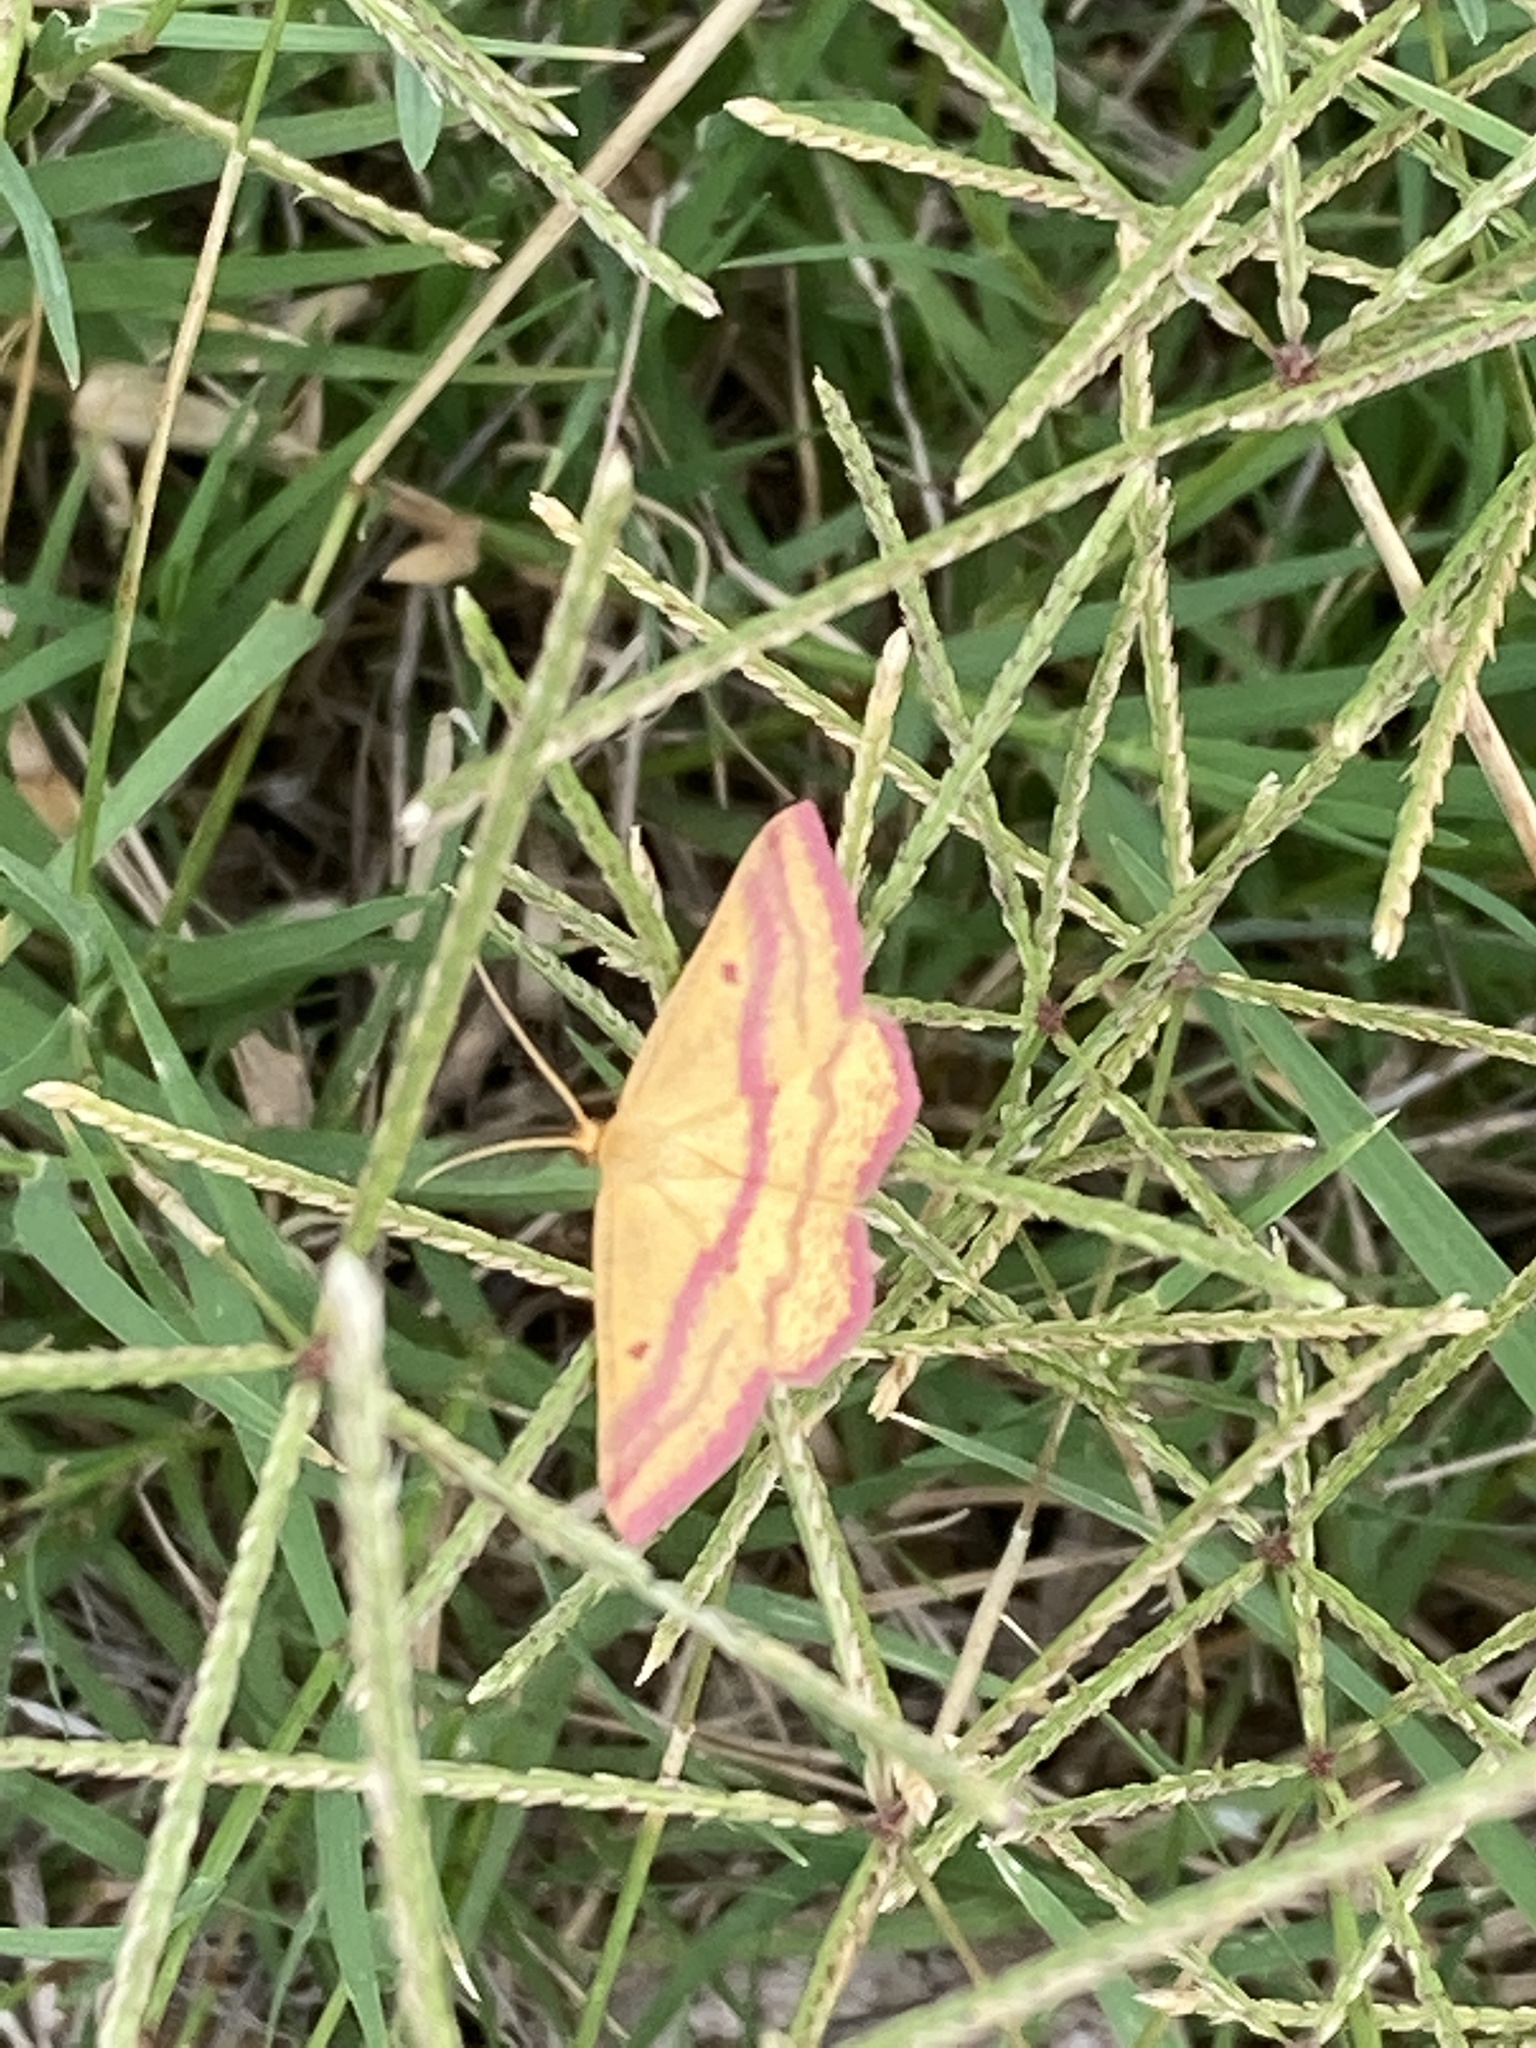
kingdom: Animalia
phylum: Arthropoda
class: Insecta
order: Lepidoptera
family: Geometridae
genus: Haematopis
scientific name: Haematopis grataria
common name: Chickweed geometer
